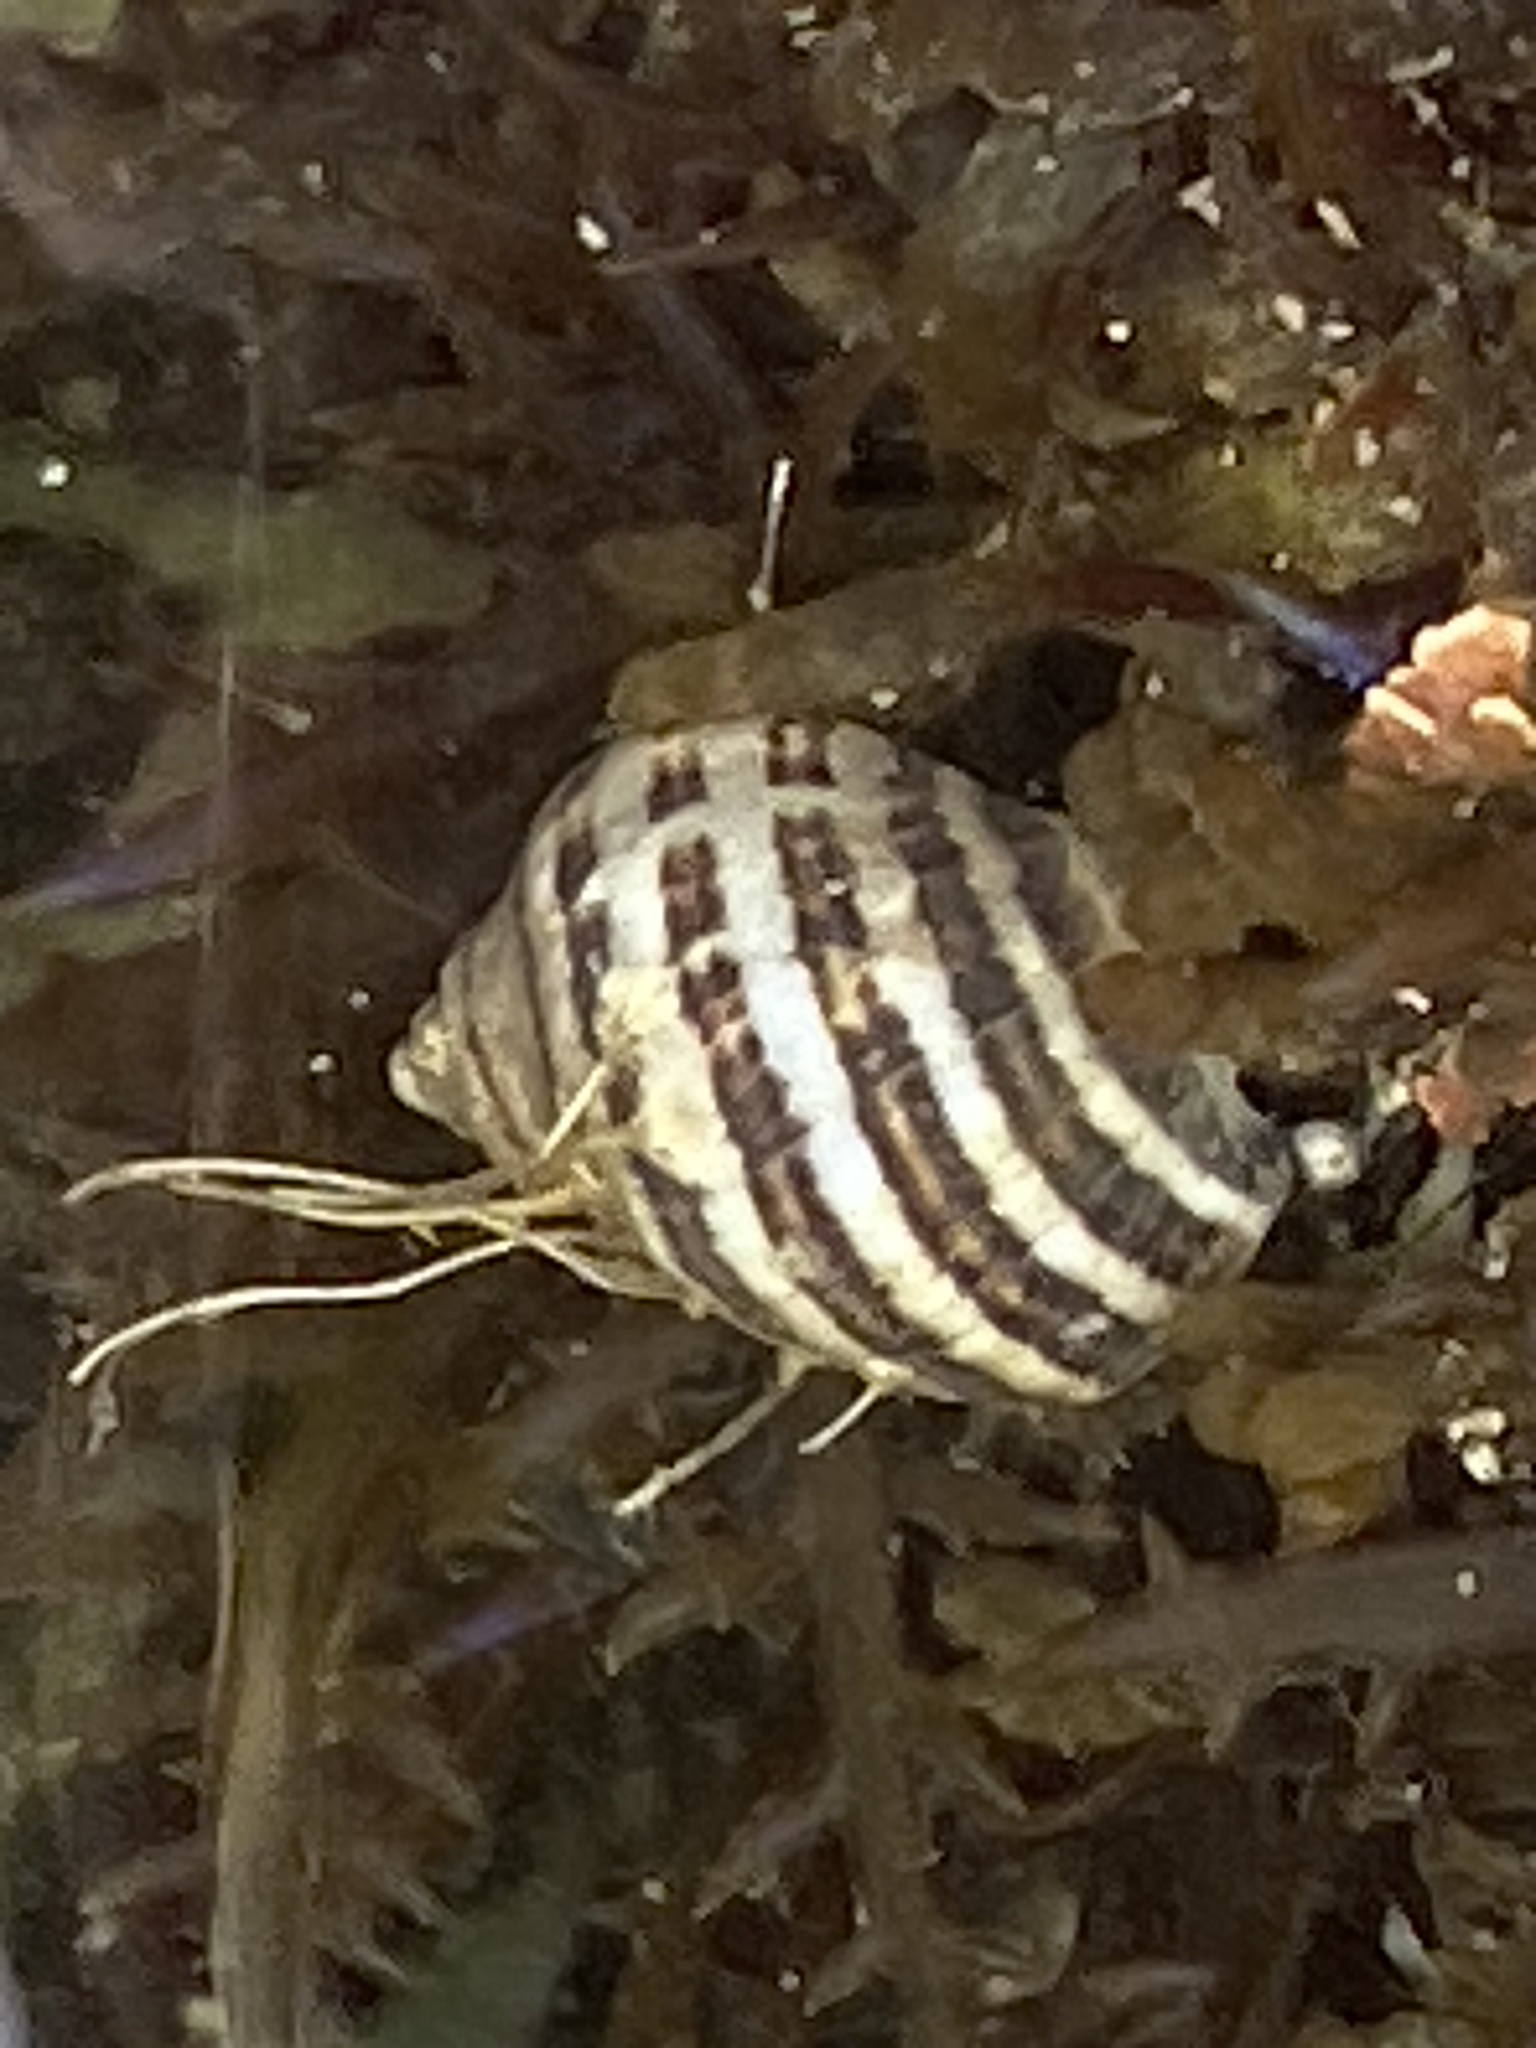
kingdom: Animalia
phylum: Mollusca
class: Gastropoda
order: Neogastropoda
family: Muricidae
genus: Nucella
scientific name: Nucella ostrina
